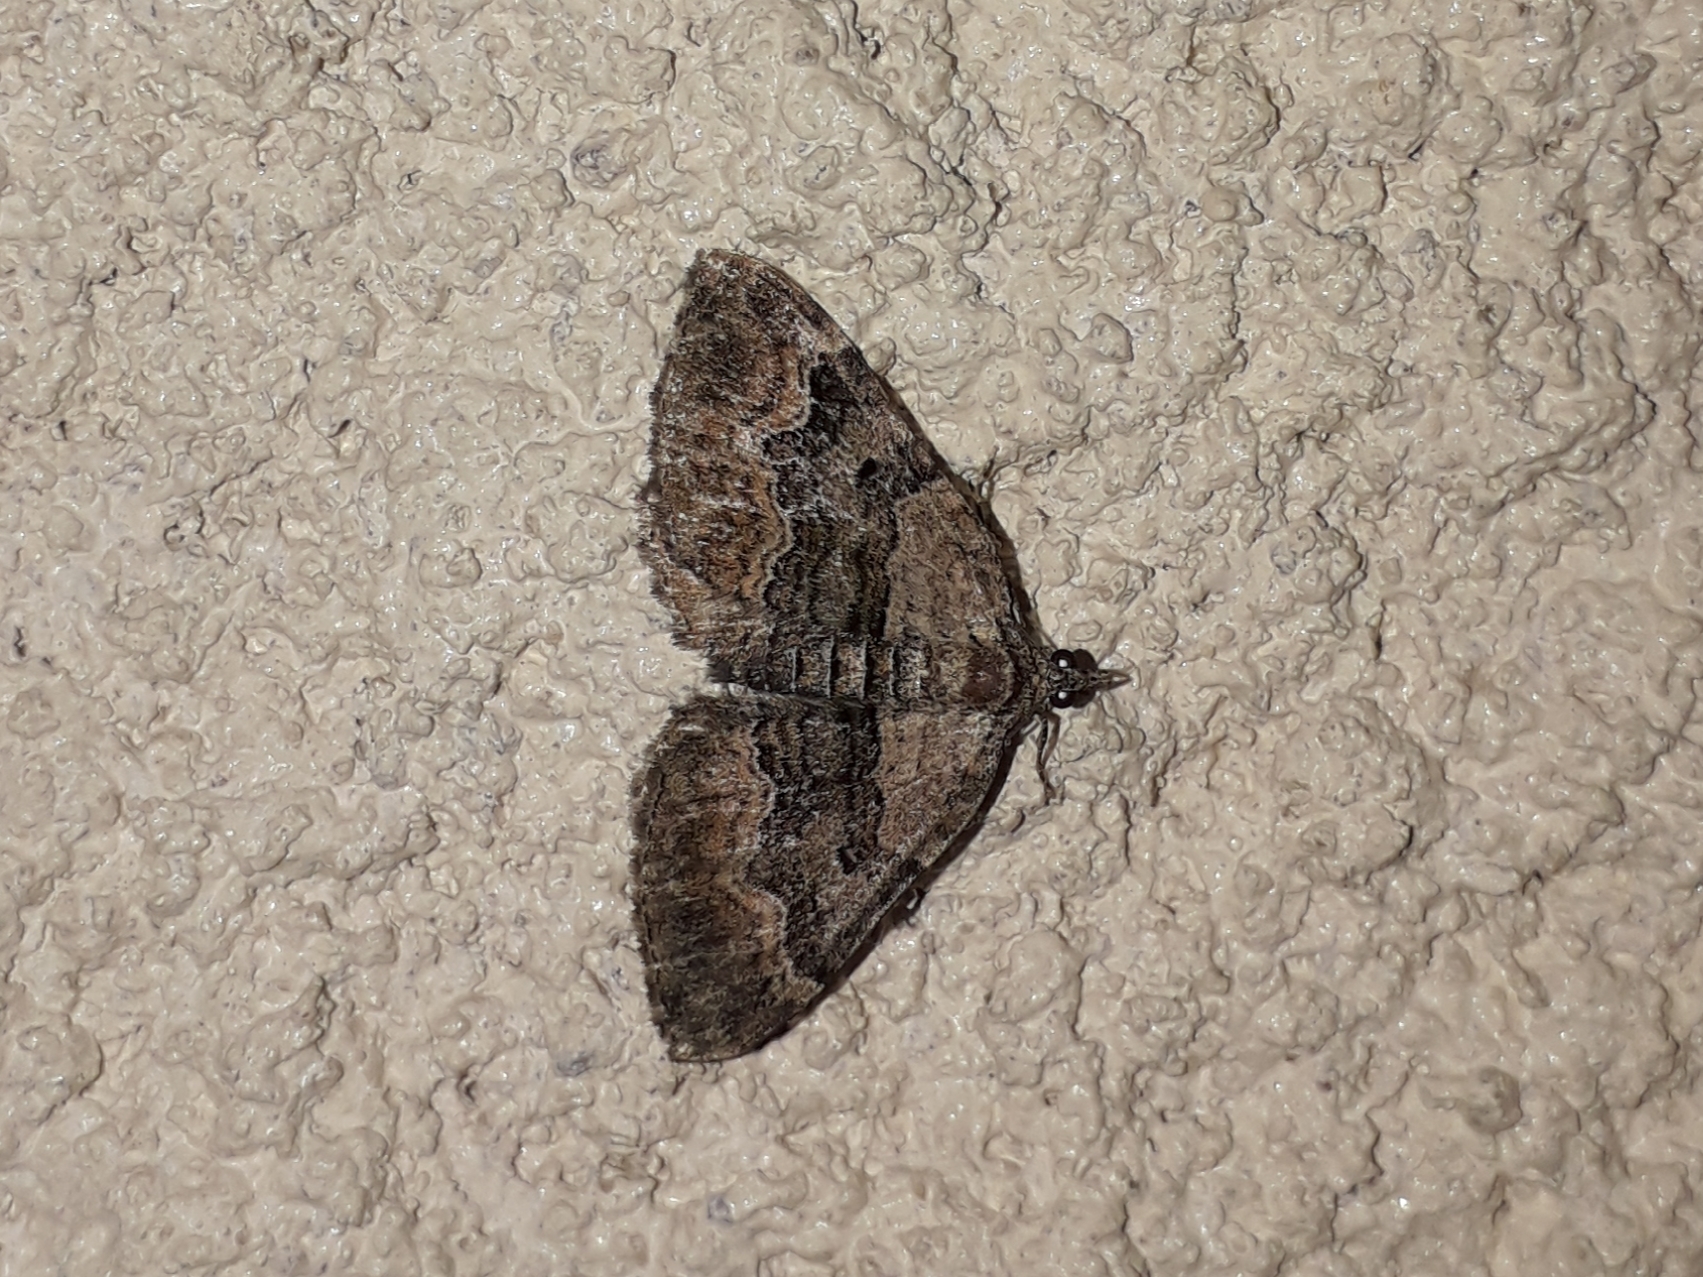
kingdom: Animalia
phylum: Arthropoda
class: Insecta
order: Lepidoptera
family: Geometridae
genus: Xanthorhoe
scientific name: Xanthorhoe quadrifasiata
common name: Large twin-spot carpet
